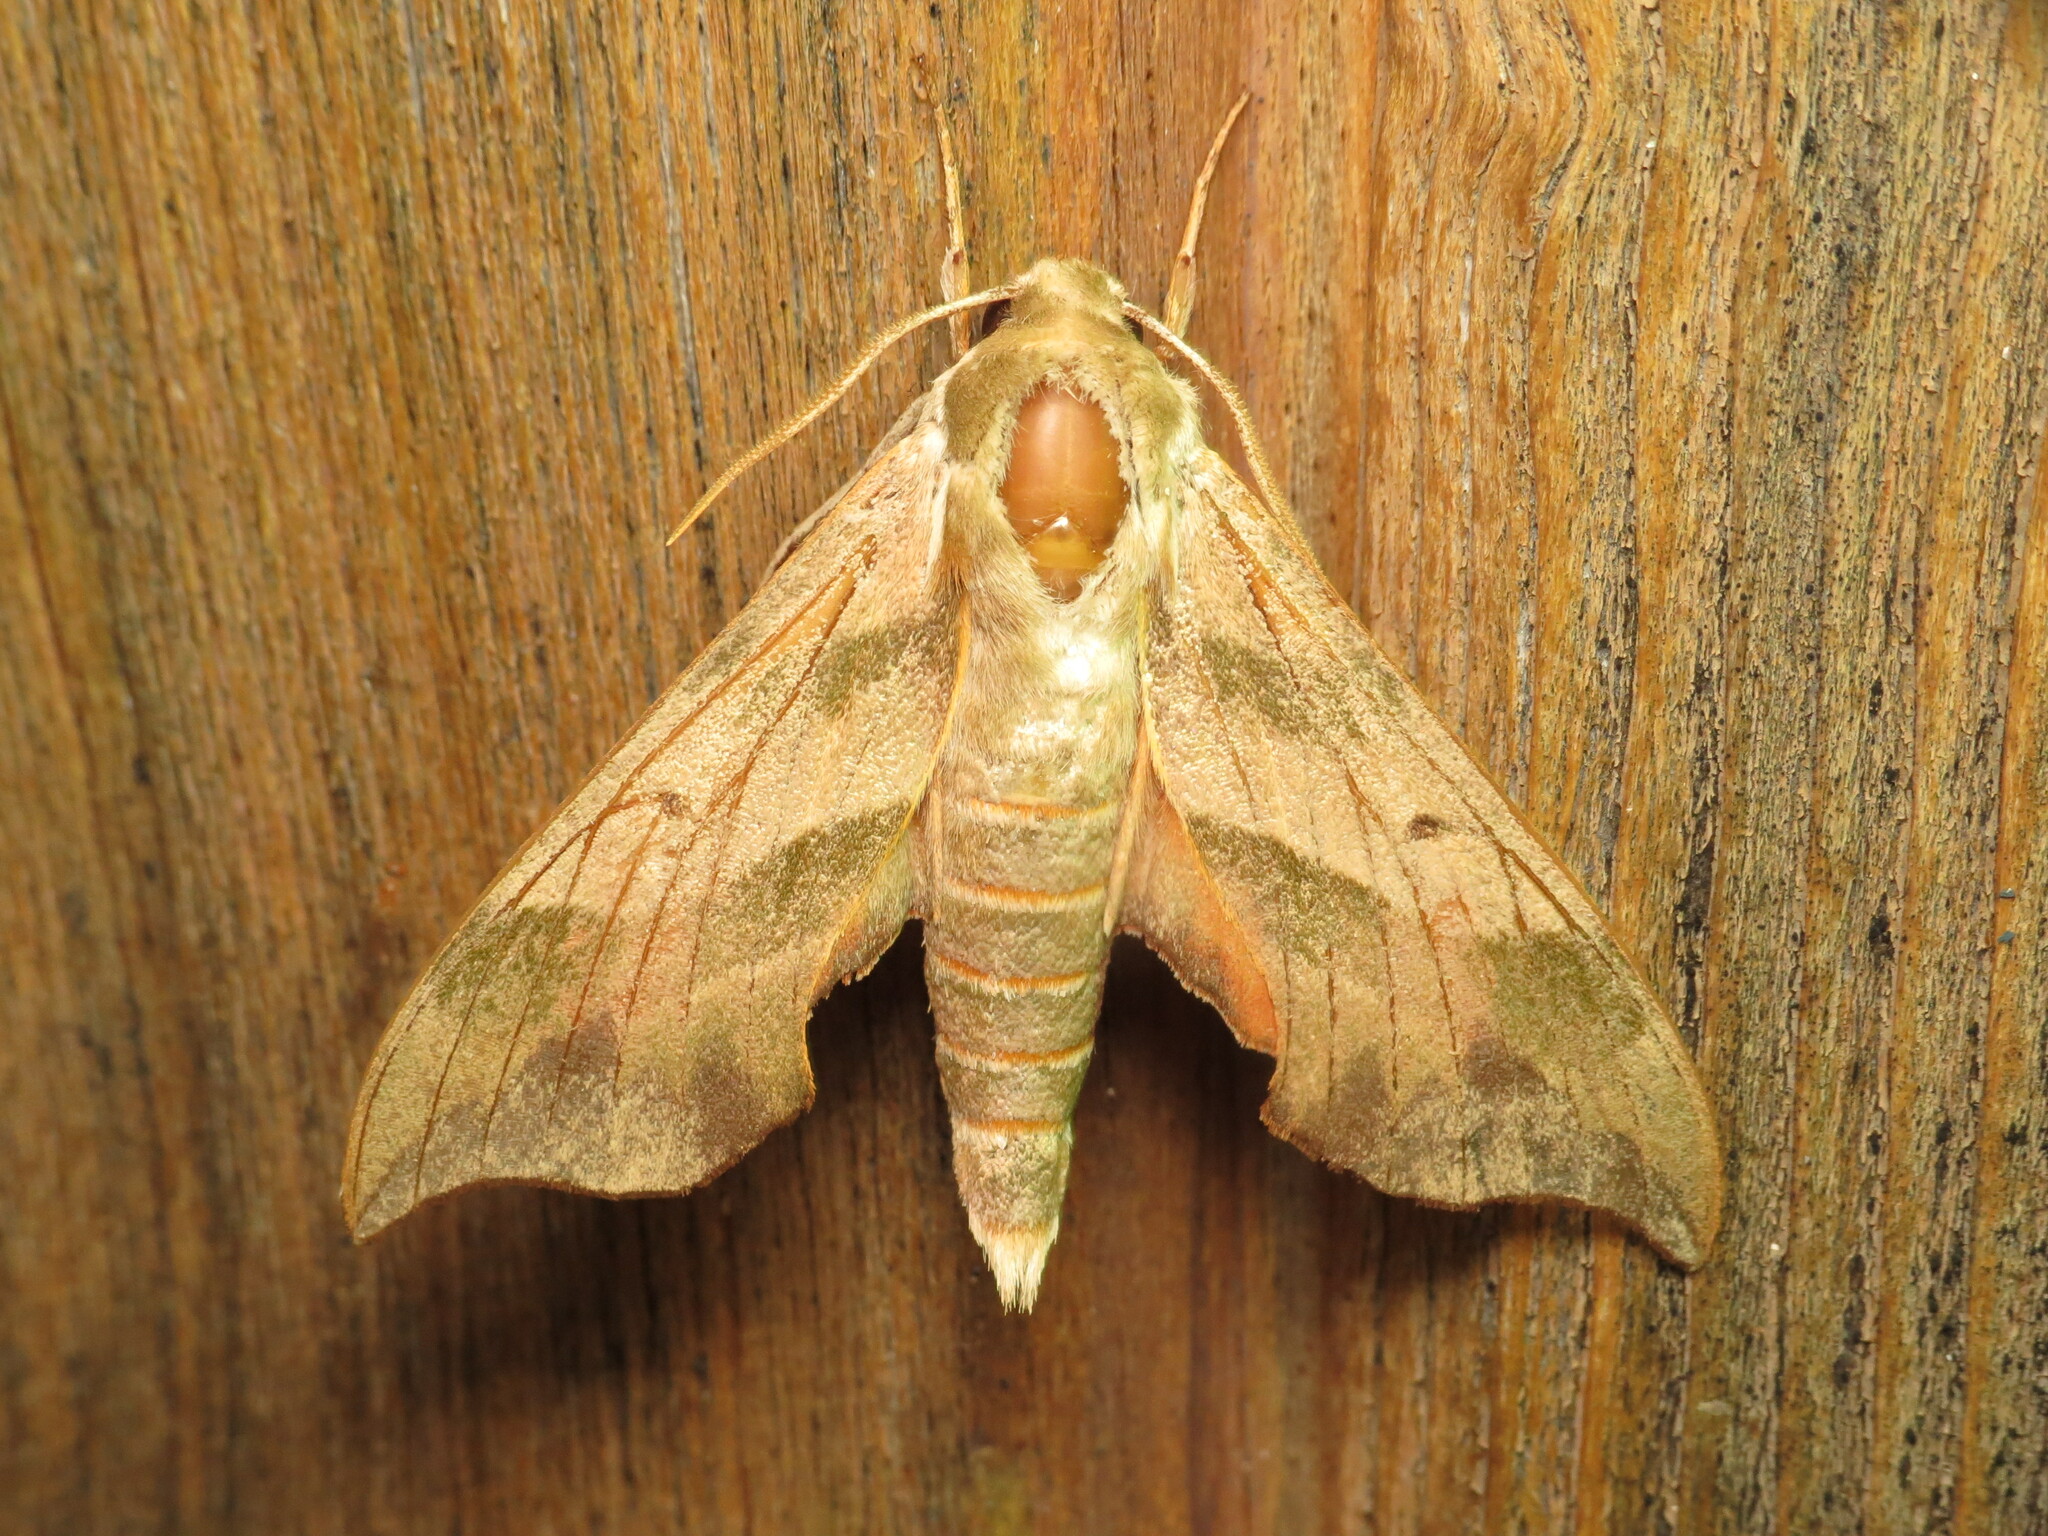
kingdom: Animalia
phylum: Arthropoda
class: Insecta
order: Lepidoptera
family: Sphingidae
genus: Darapsa
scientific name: Darapsa myron
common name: Hog sphinx
